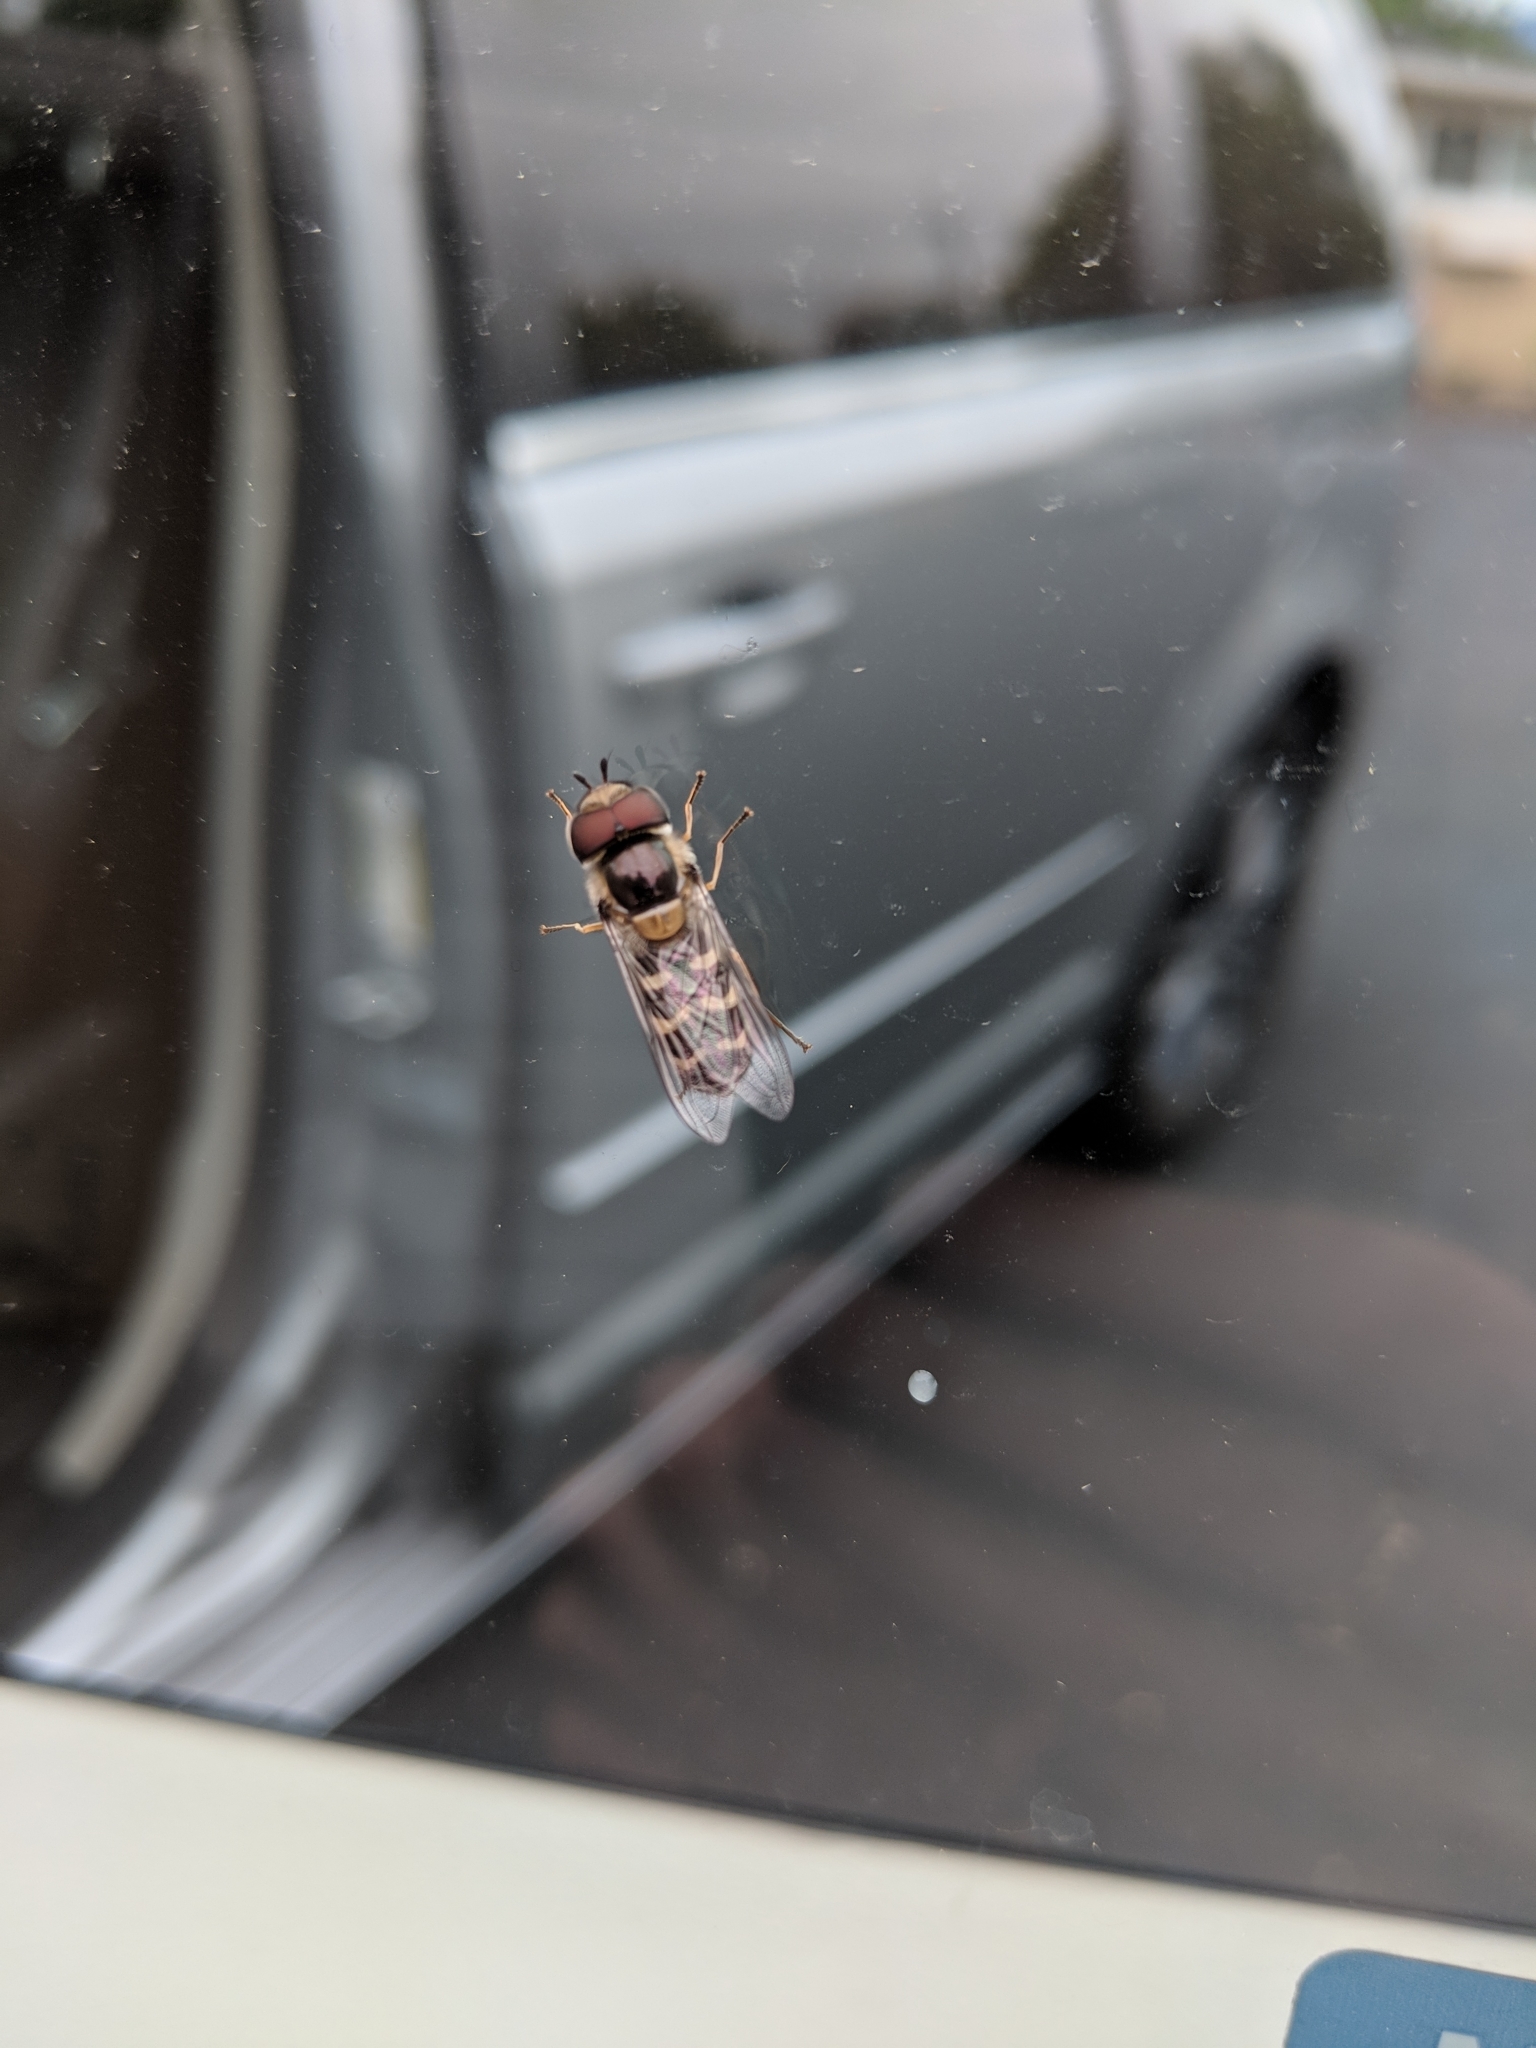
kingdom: Animalia
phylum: Arthropoda
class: Insecta
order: Diptera
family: Syrphidae
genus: Scaeva
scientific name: Scaeva affinis
